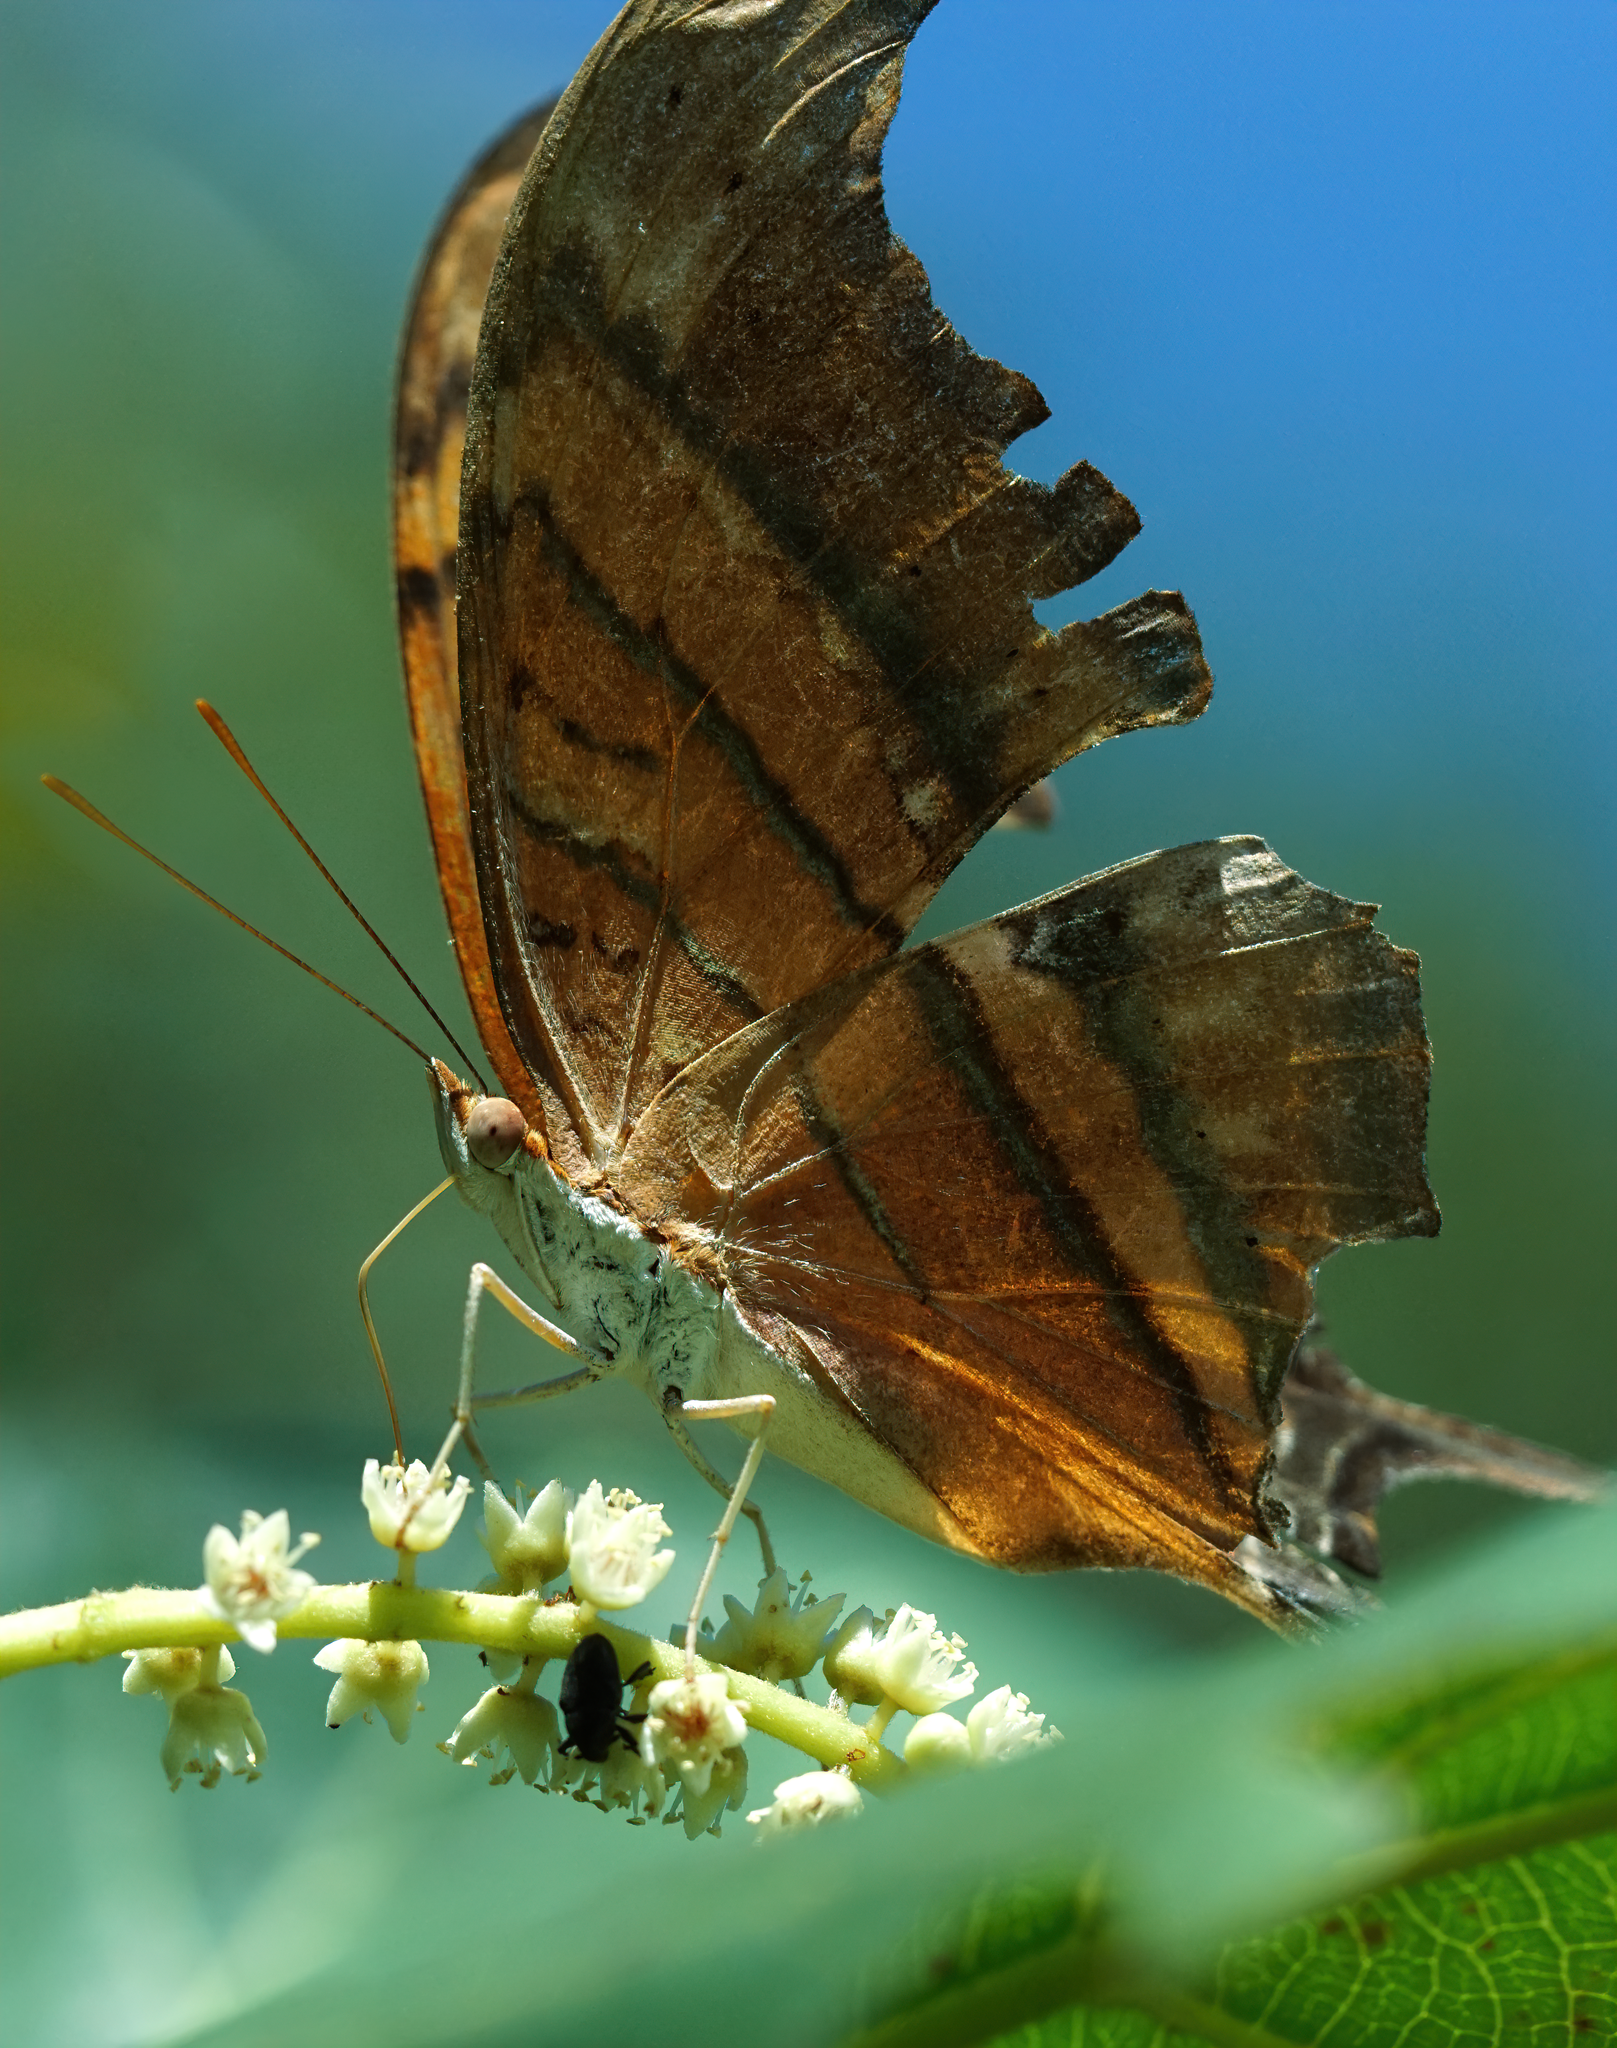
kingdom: Animalia
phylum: Arthropoda
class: Insecta
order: Lepidoptera
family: Nymphalidae
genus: Marpesia
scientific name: Marpesia petreus
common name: Red dagger wing
